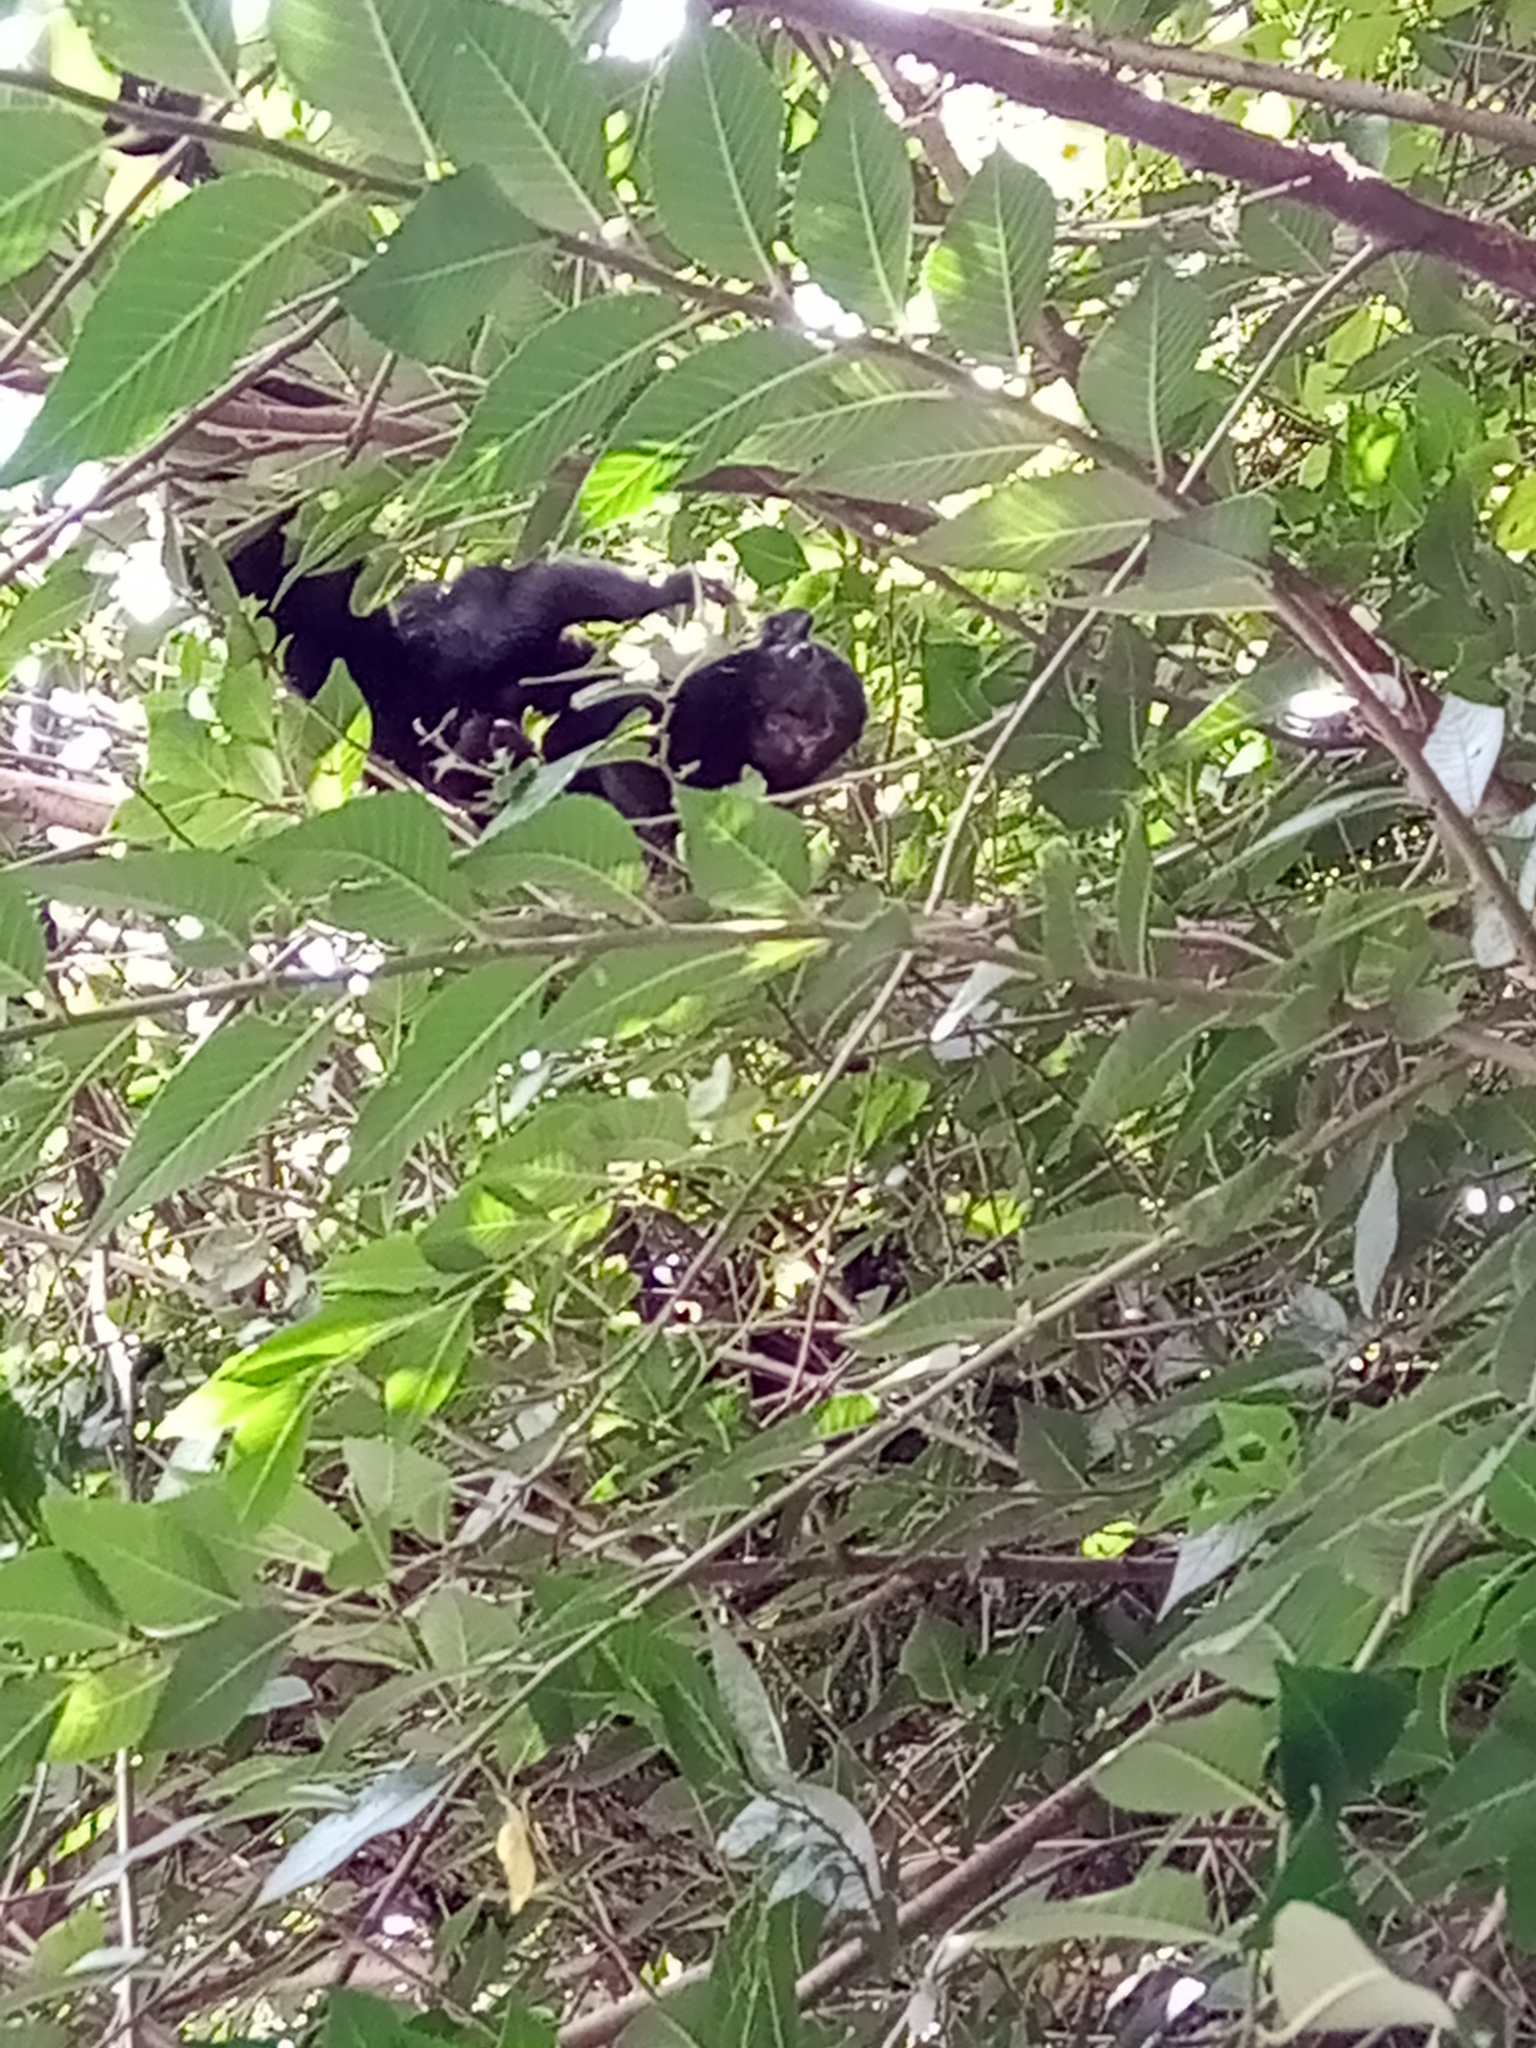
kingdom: Animalia
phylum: Chordata
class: Mammalia
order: Rodentia
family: Sciuridae
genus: Sciurus
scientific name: Sciurus aureogaster
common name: Red-bellied squirrel
